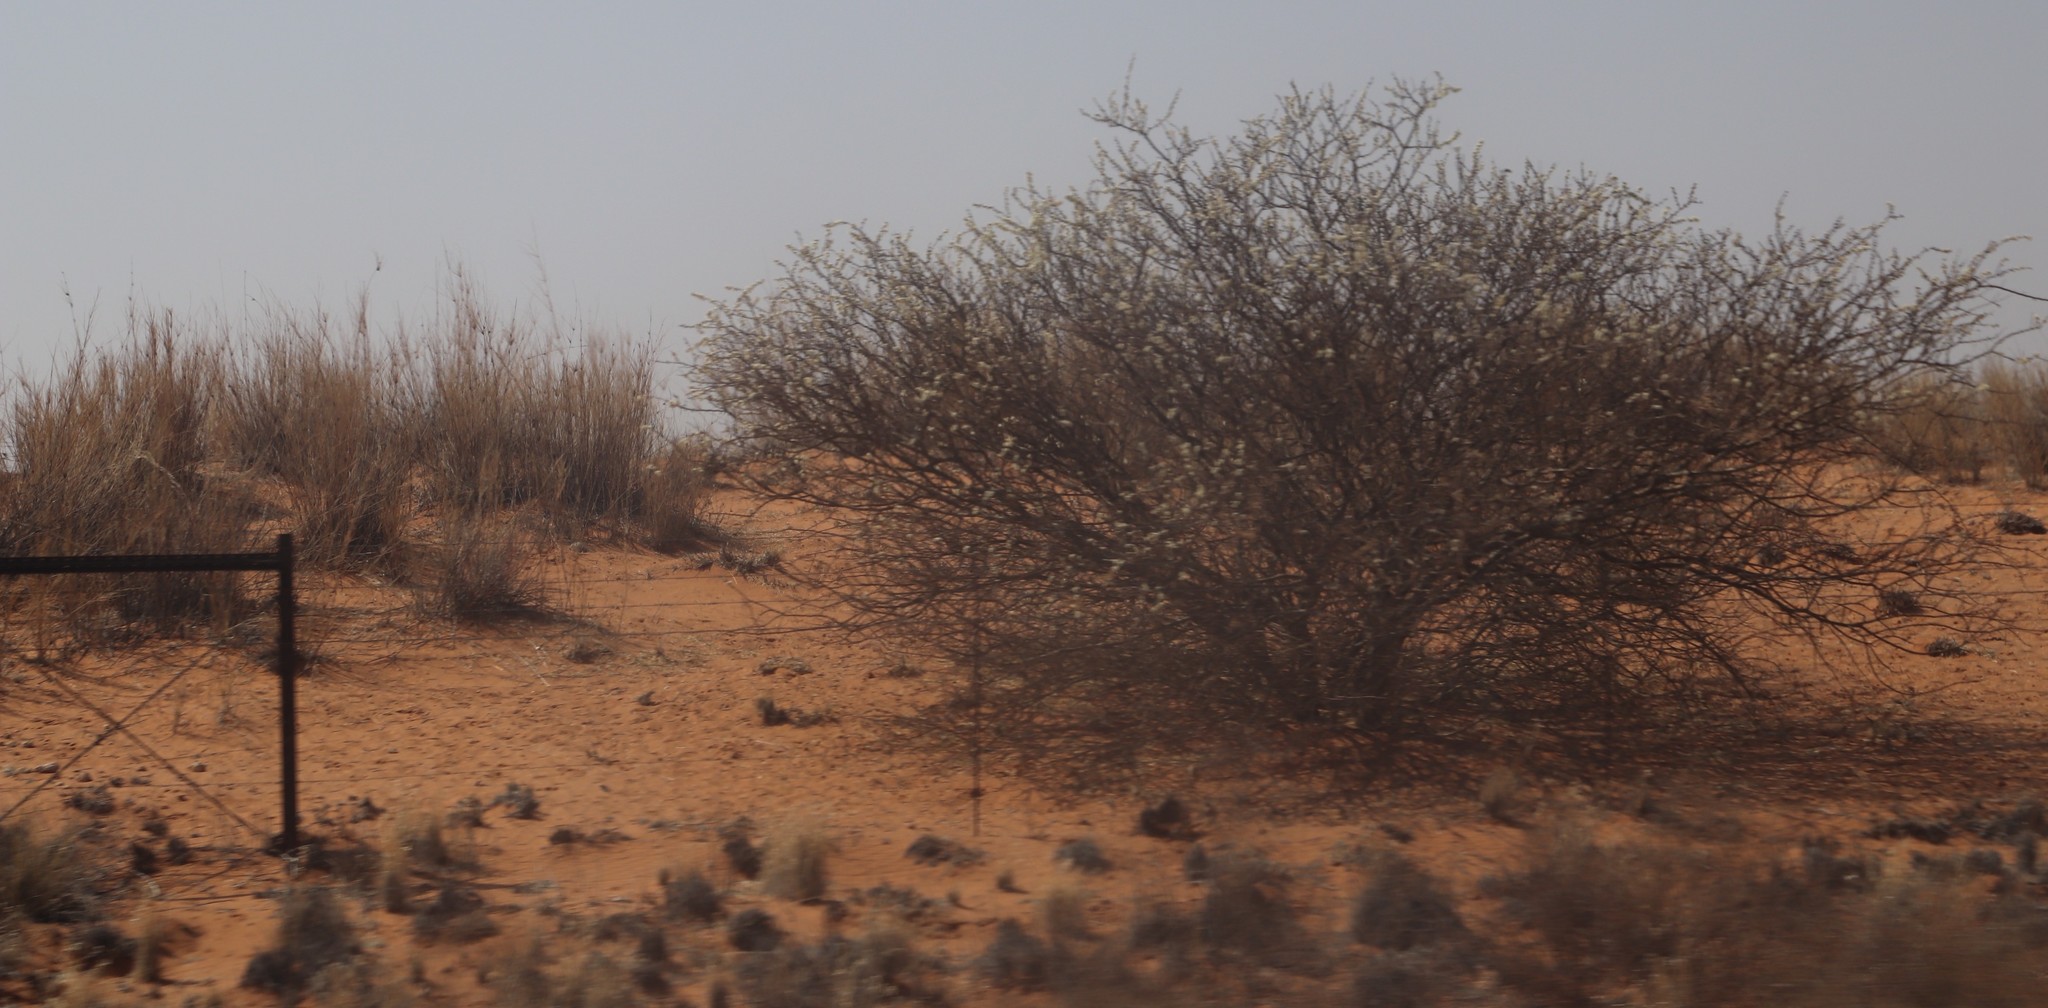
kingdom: Plantae
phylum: Tracheophyta
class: Magnoliopsida
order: Fabales
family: Fabaceae
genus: Senegalia
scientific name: Senegalia mellifera
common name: Hookthorn
